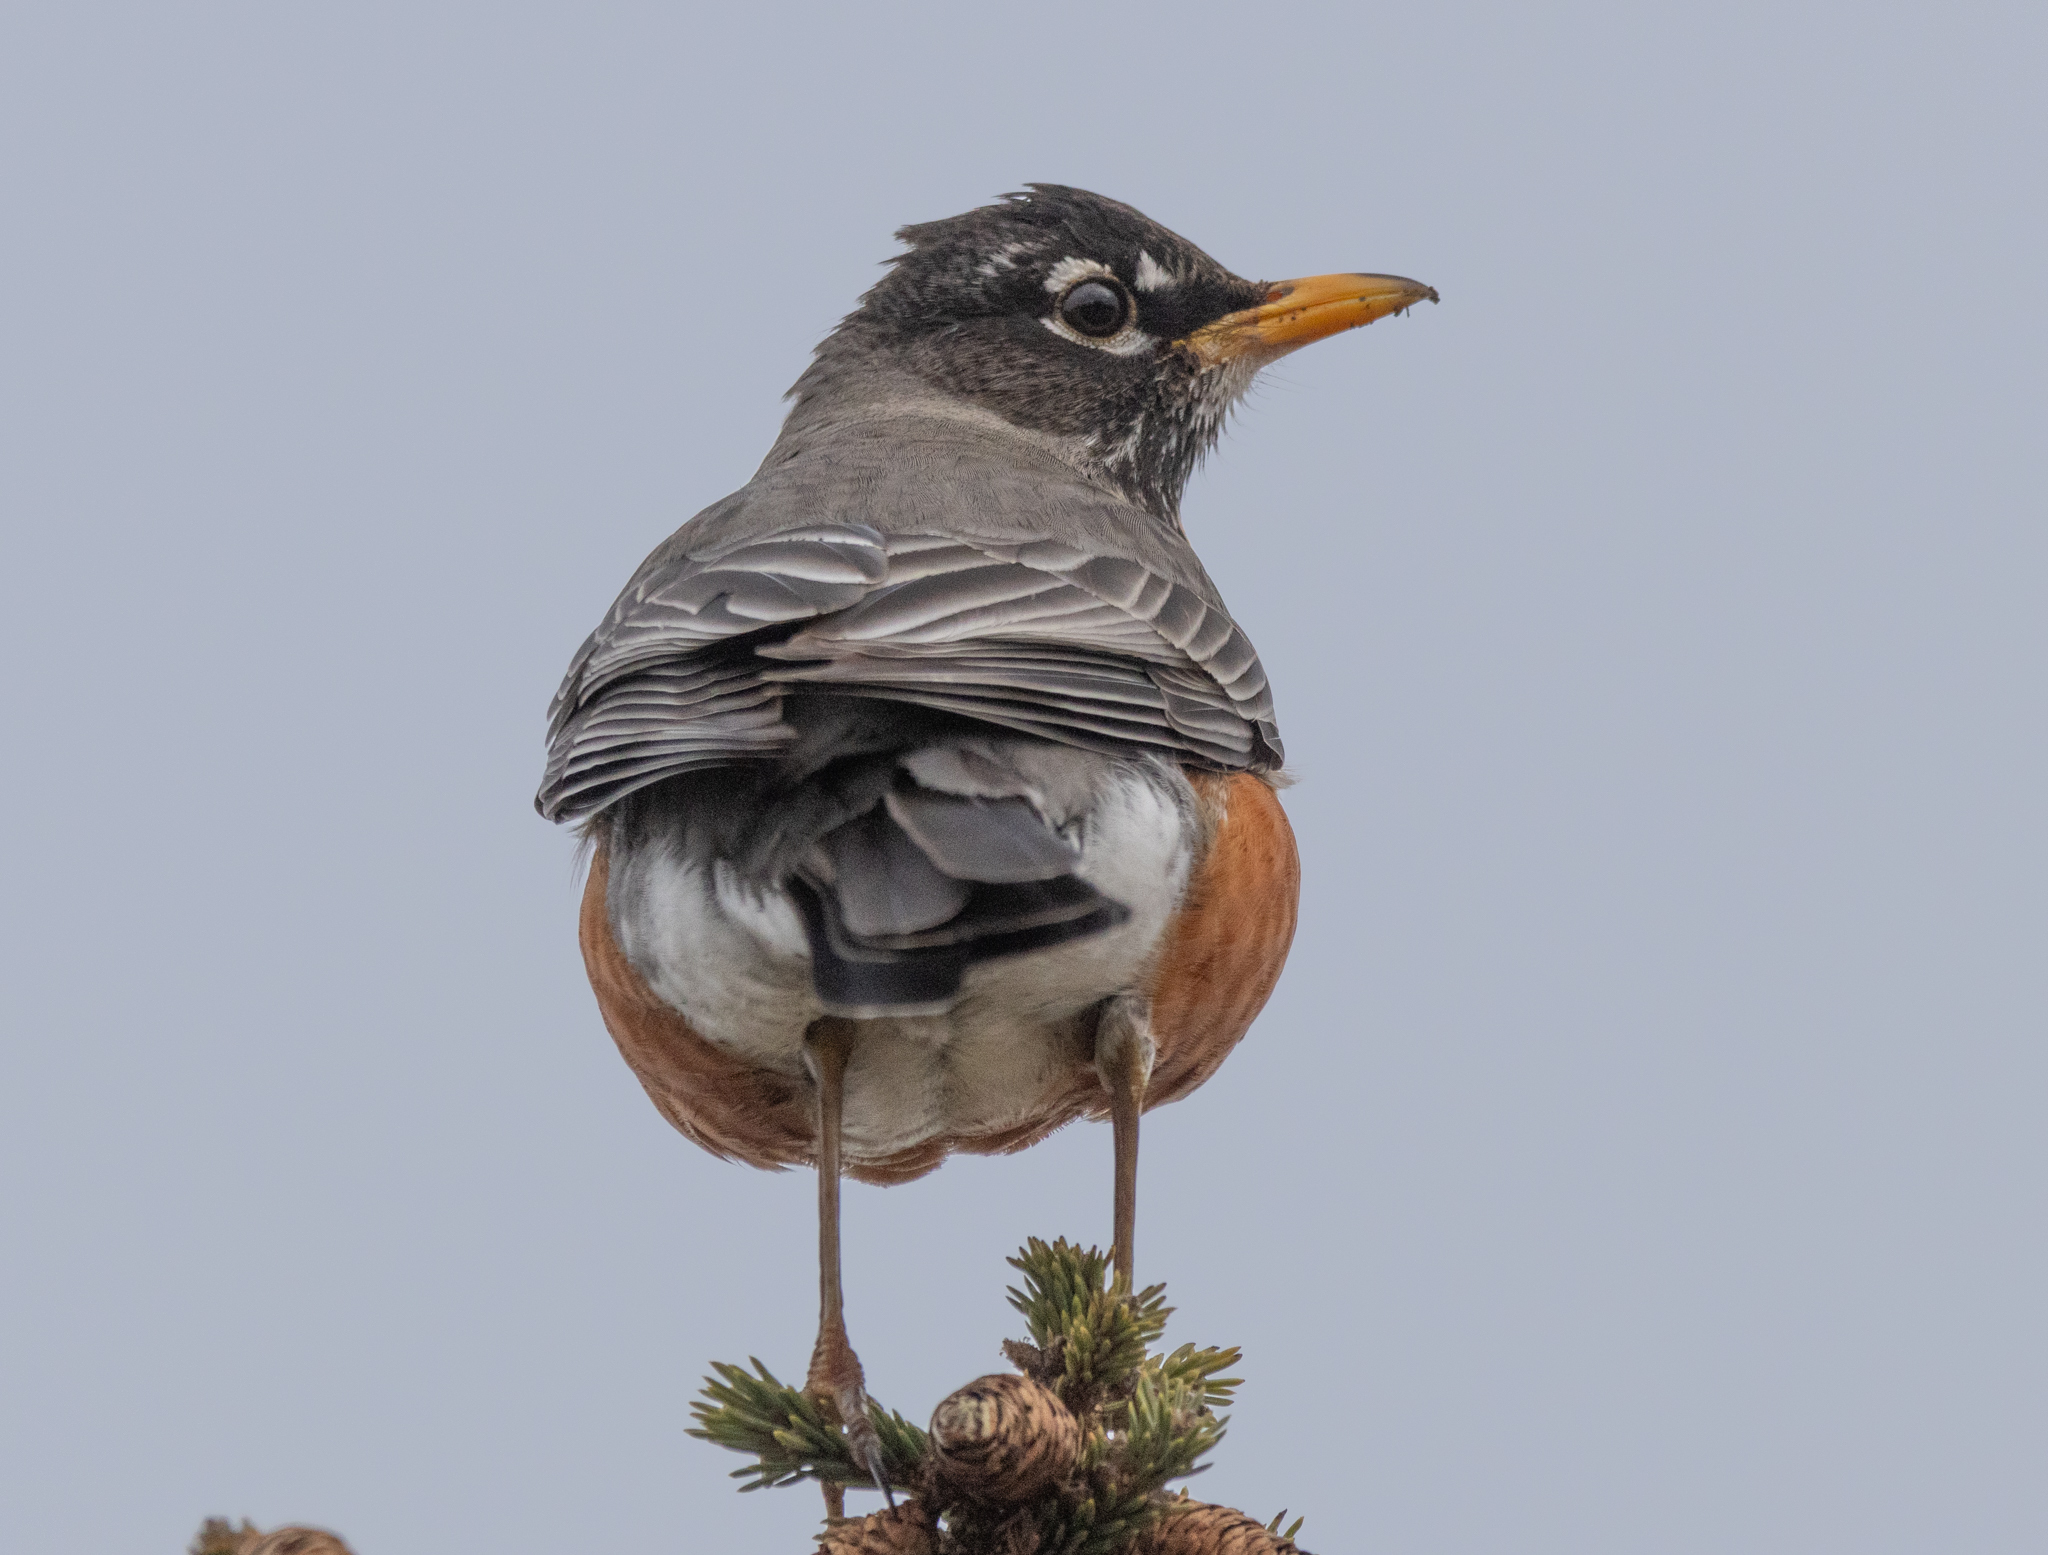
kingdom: Animalia
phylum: Chordata
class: Aves
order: Passeriformes
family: Turdidae
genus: Turdus
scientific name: Turdus migratorius
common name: American robin
